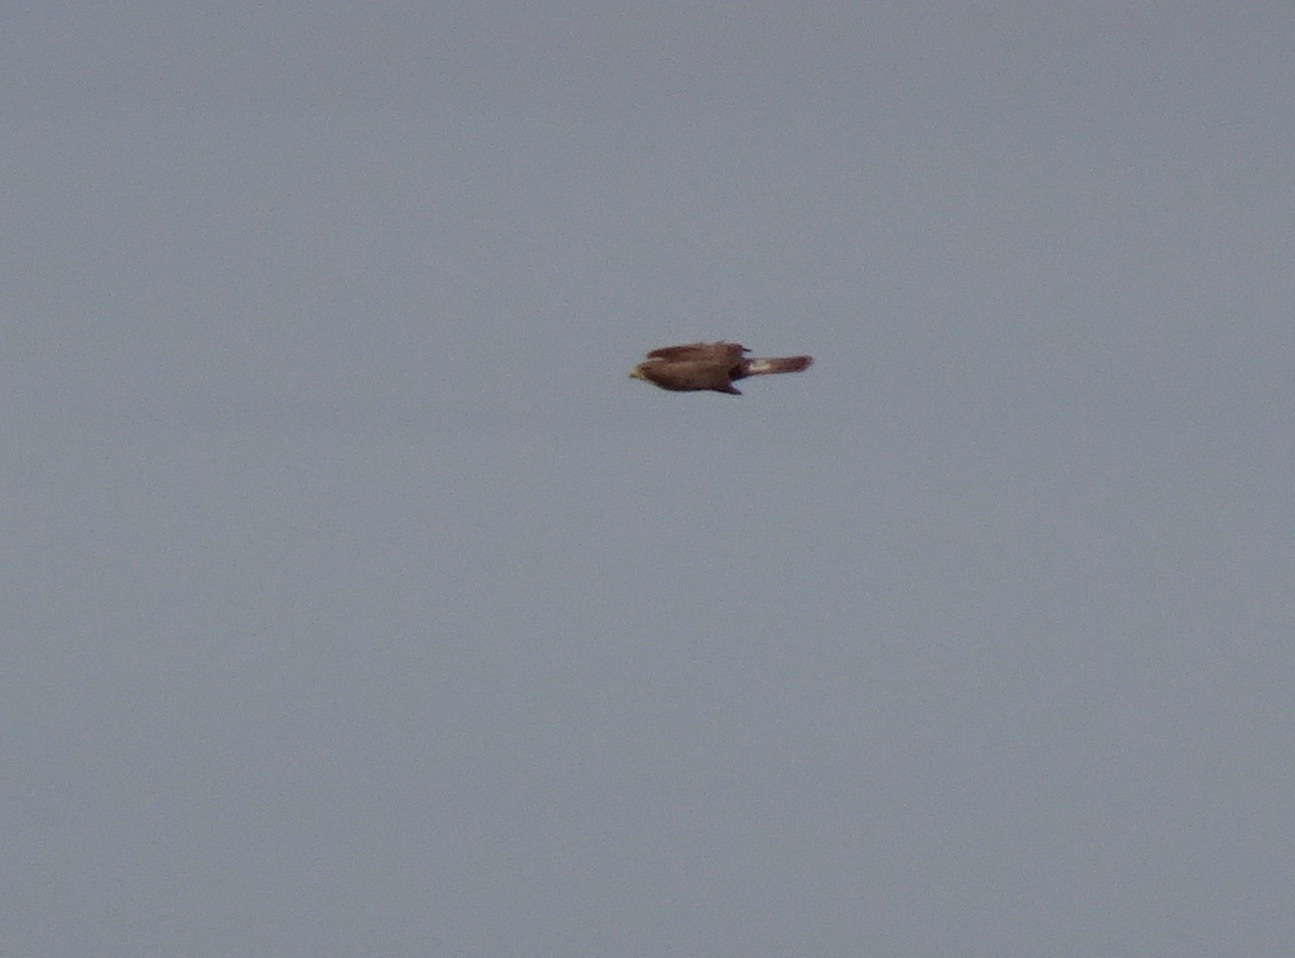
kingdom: Animalia
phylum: Chordata
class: Aves
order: Accipitriformes
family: Accipitridae
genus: Buteo
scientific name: Buteo buteo
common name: Common buzzard
